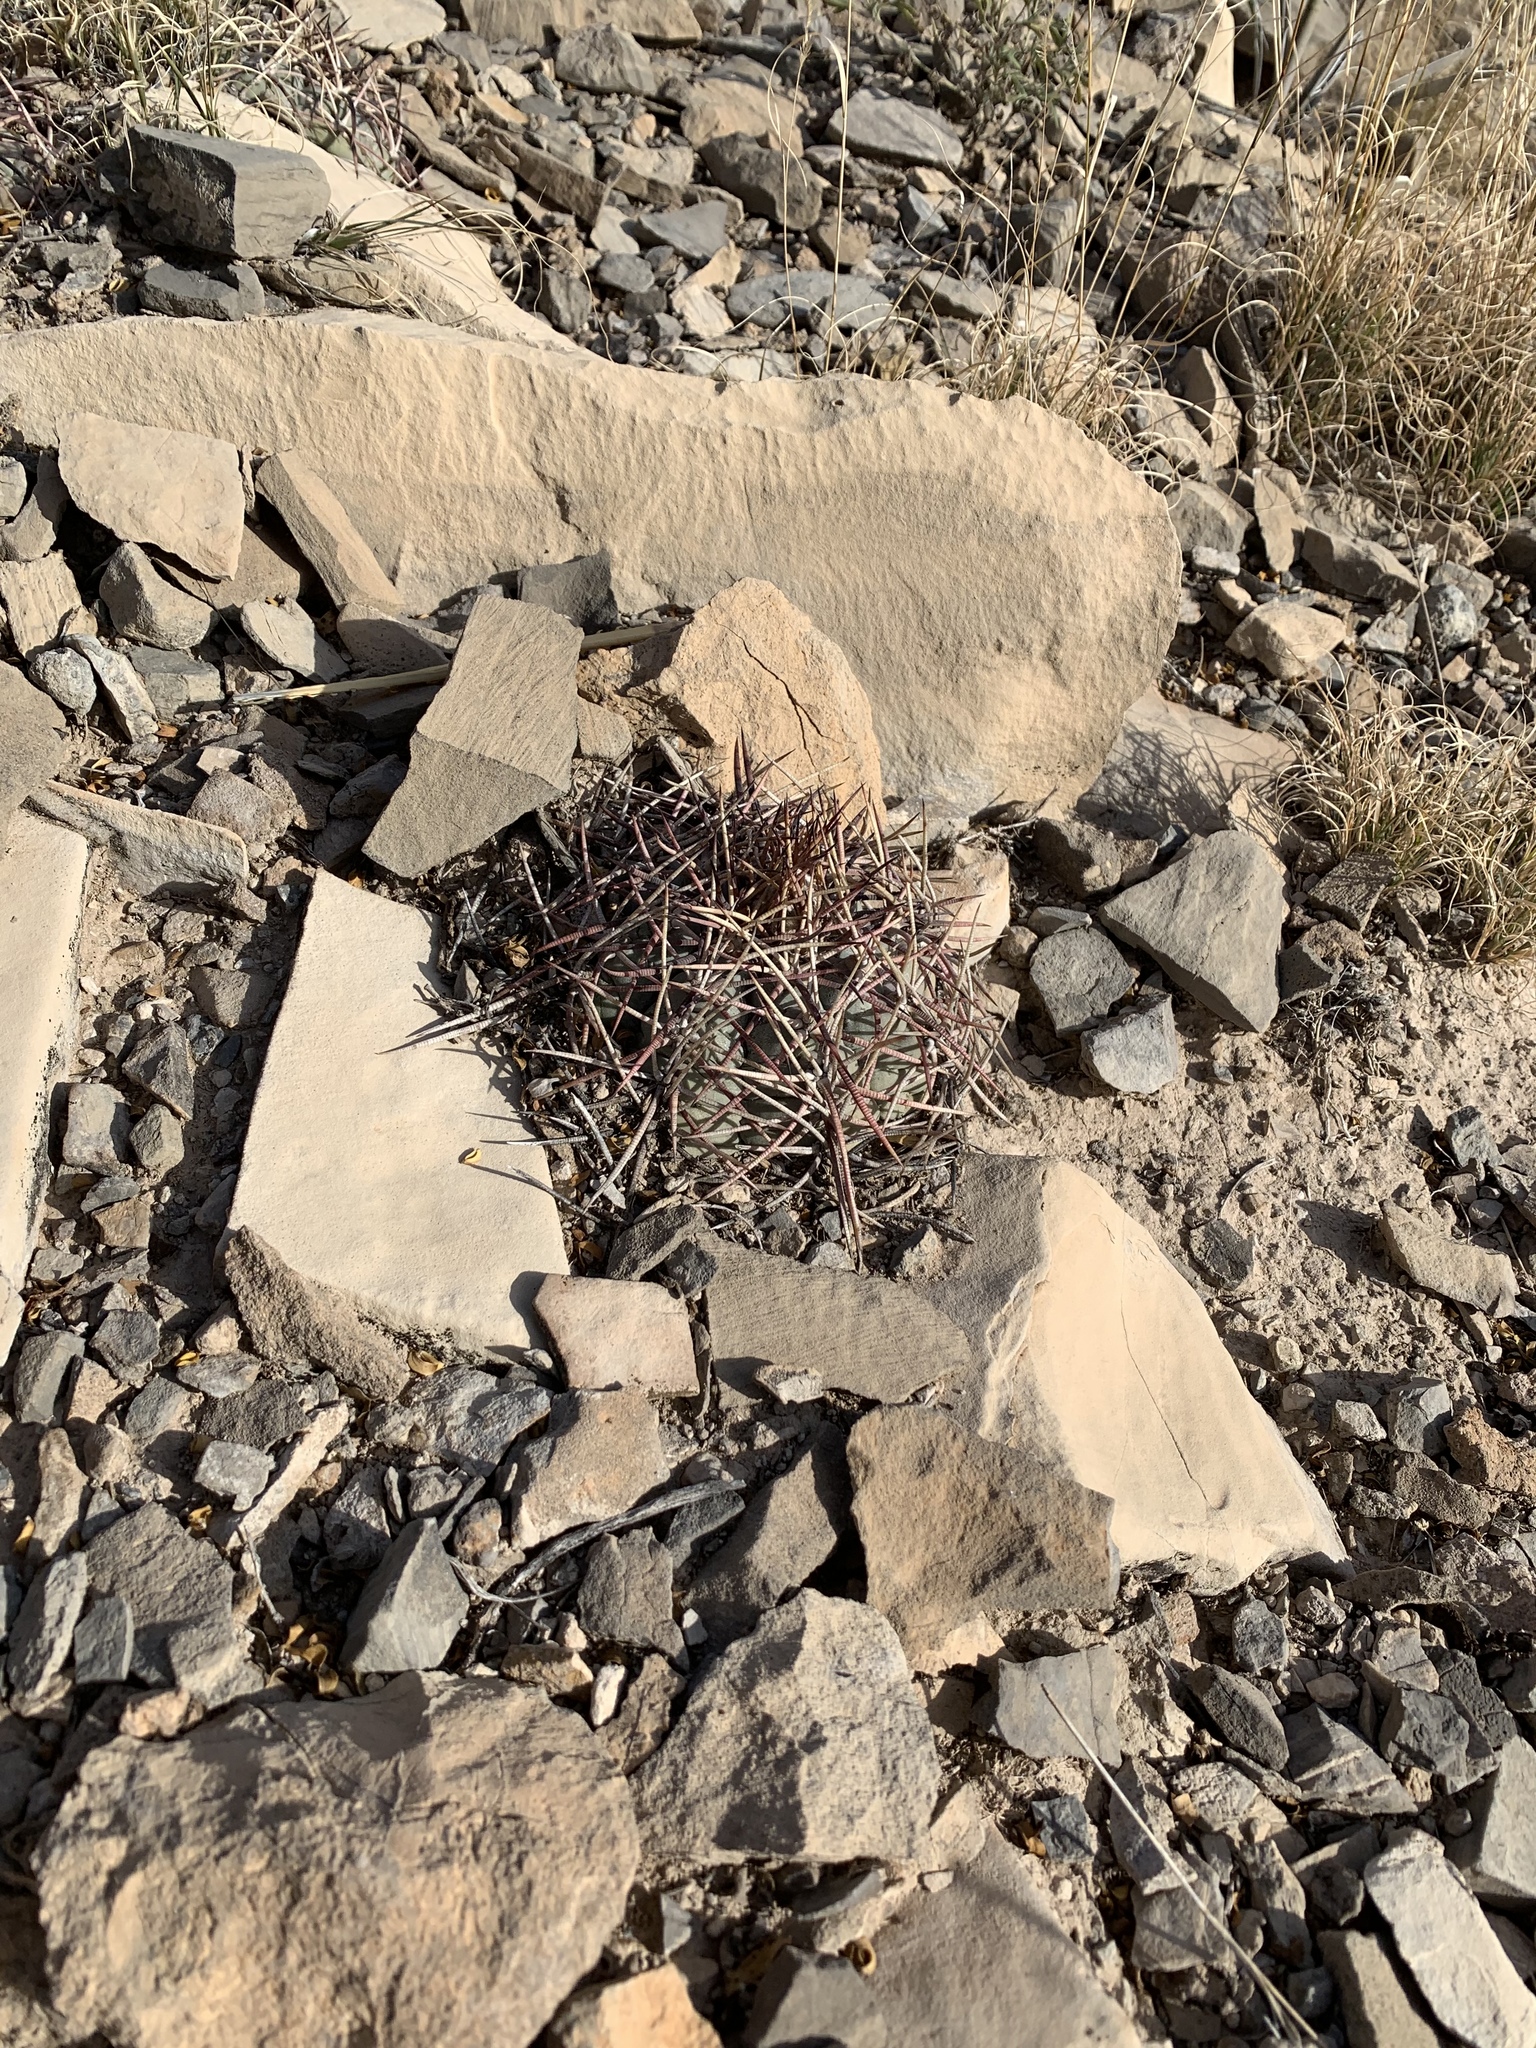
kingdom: Plantae
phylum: Tracheophyta
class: Magnoliopsida
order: Caryophyllales
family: Cactaceae
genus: Echinocactus
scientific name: Echinocactus horizonthalonius
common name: Devilshead
